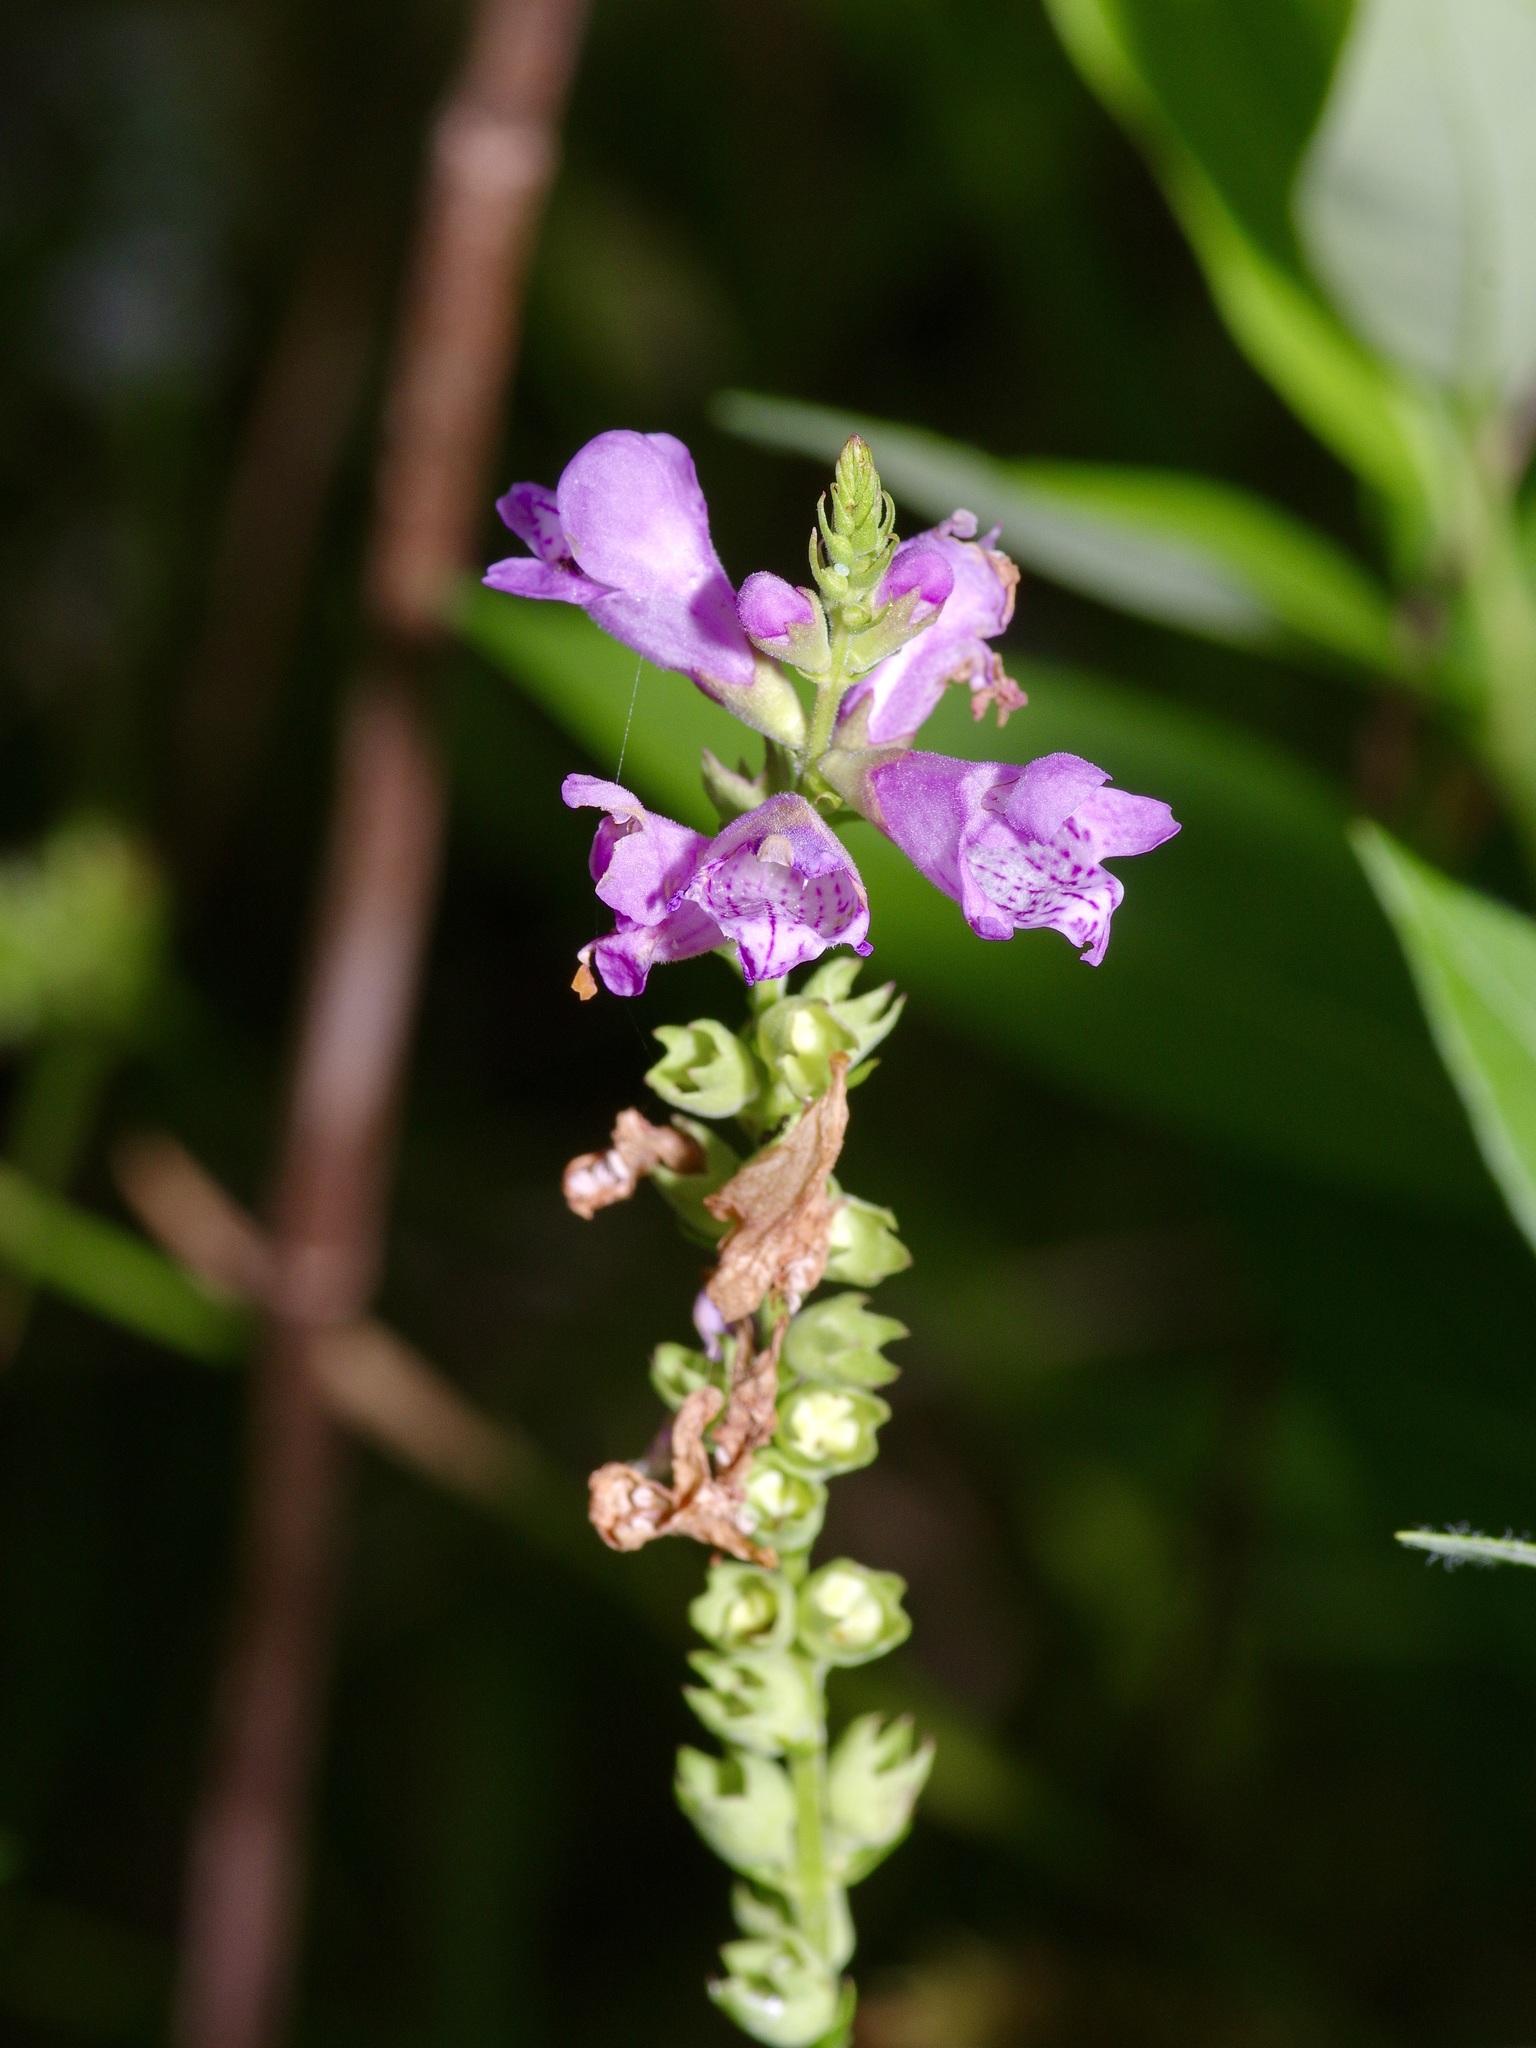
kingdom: Plantae
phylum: Tracheophyta
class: Magnoliopsida
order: Lamiales
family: Lamiaceae
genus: Physostegia
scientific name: Physostegia virginiana
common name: Obedient-plant
